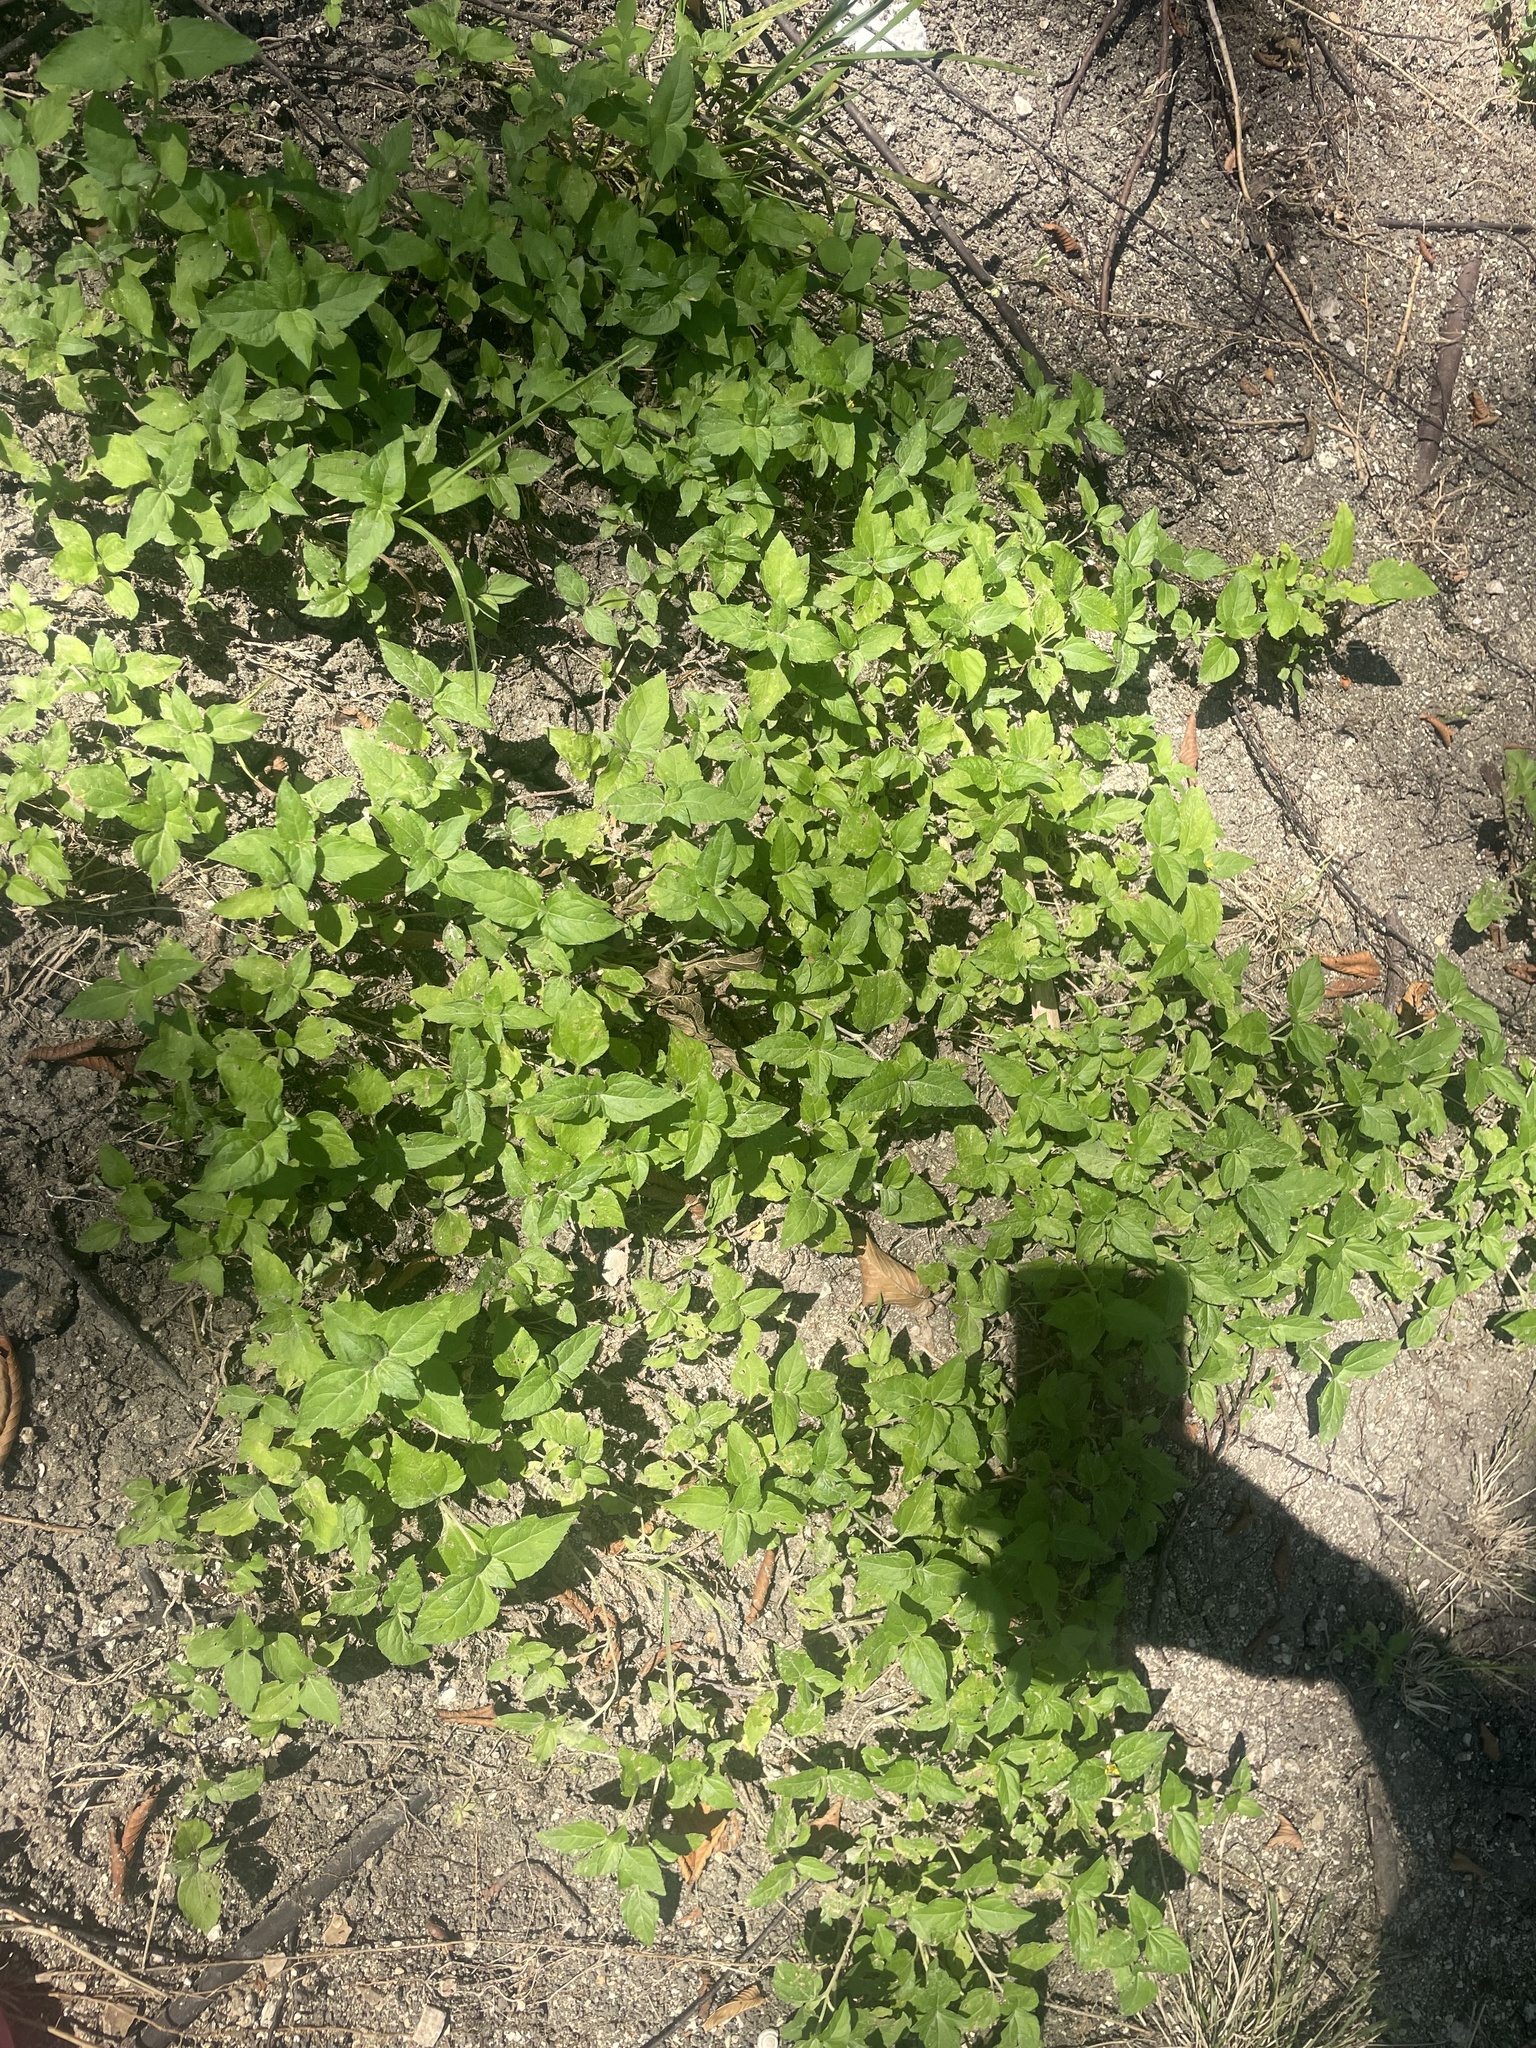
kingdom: Plantae
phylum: Tracheophyta
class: Magnoliopsida
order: Asterales
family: Asteraceae
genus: Calyptocarpus
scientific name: Calyptocarpus vialis
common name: Straggler daisy
